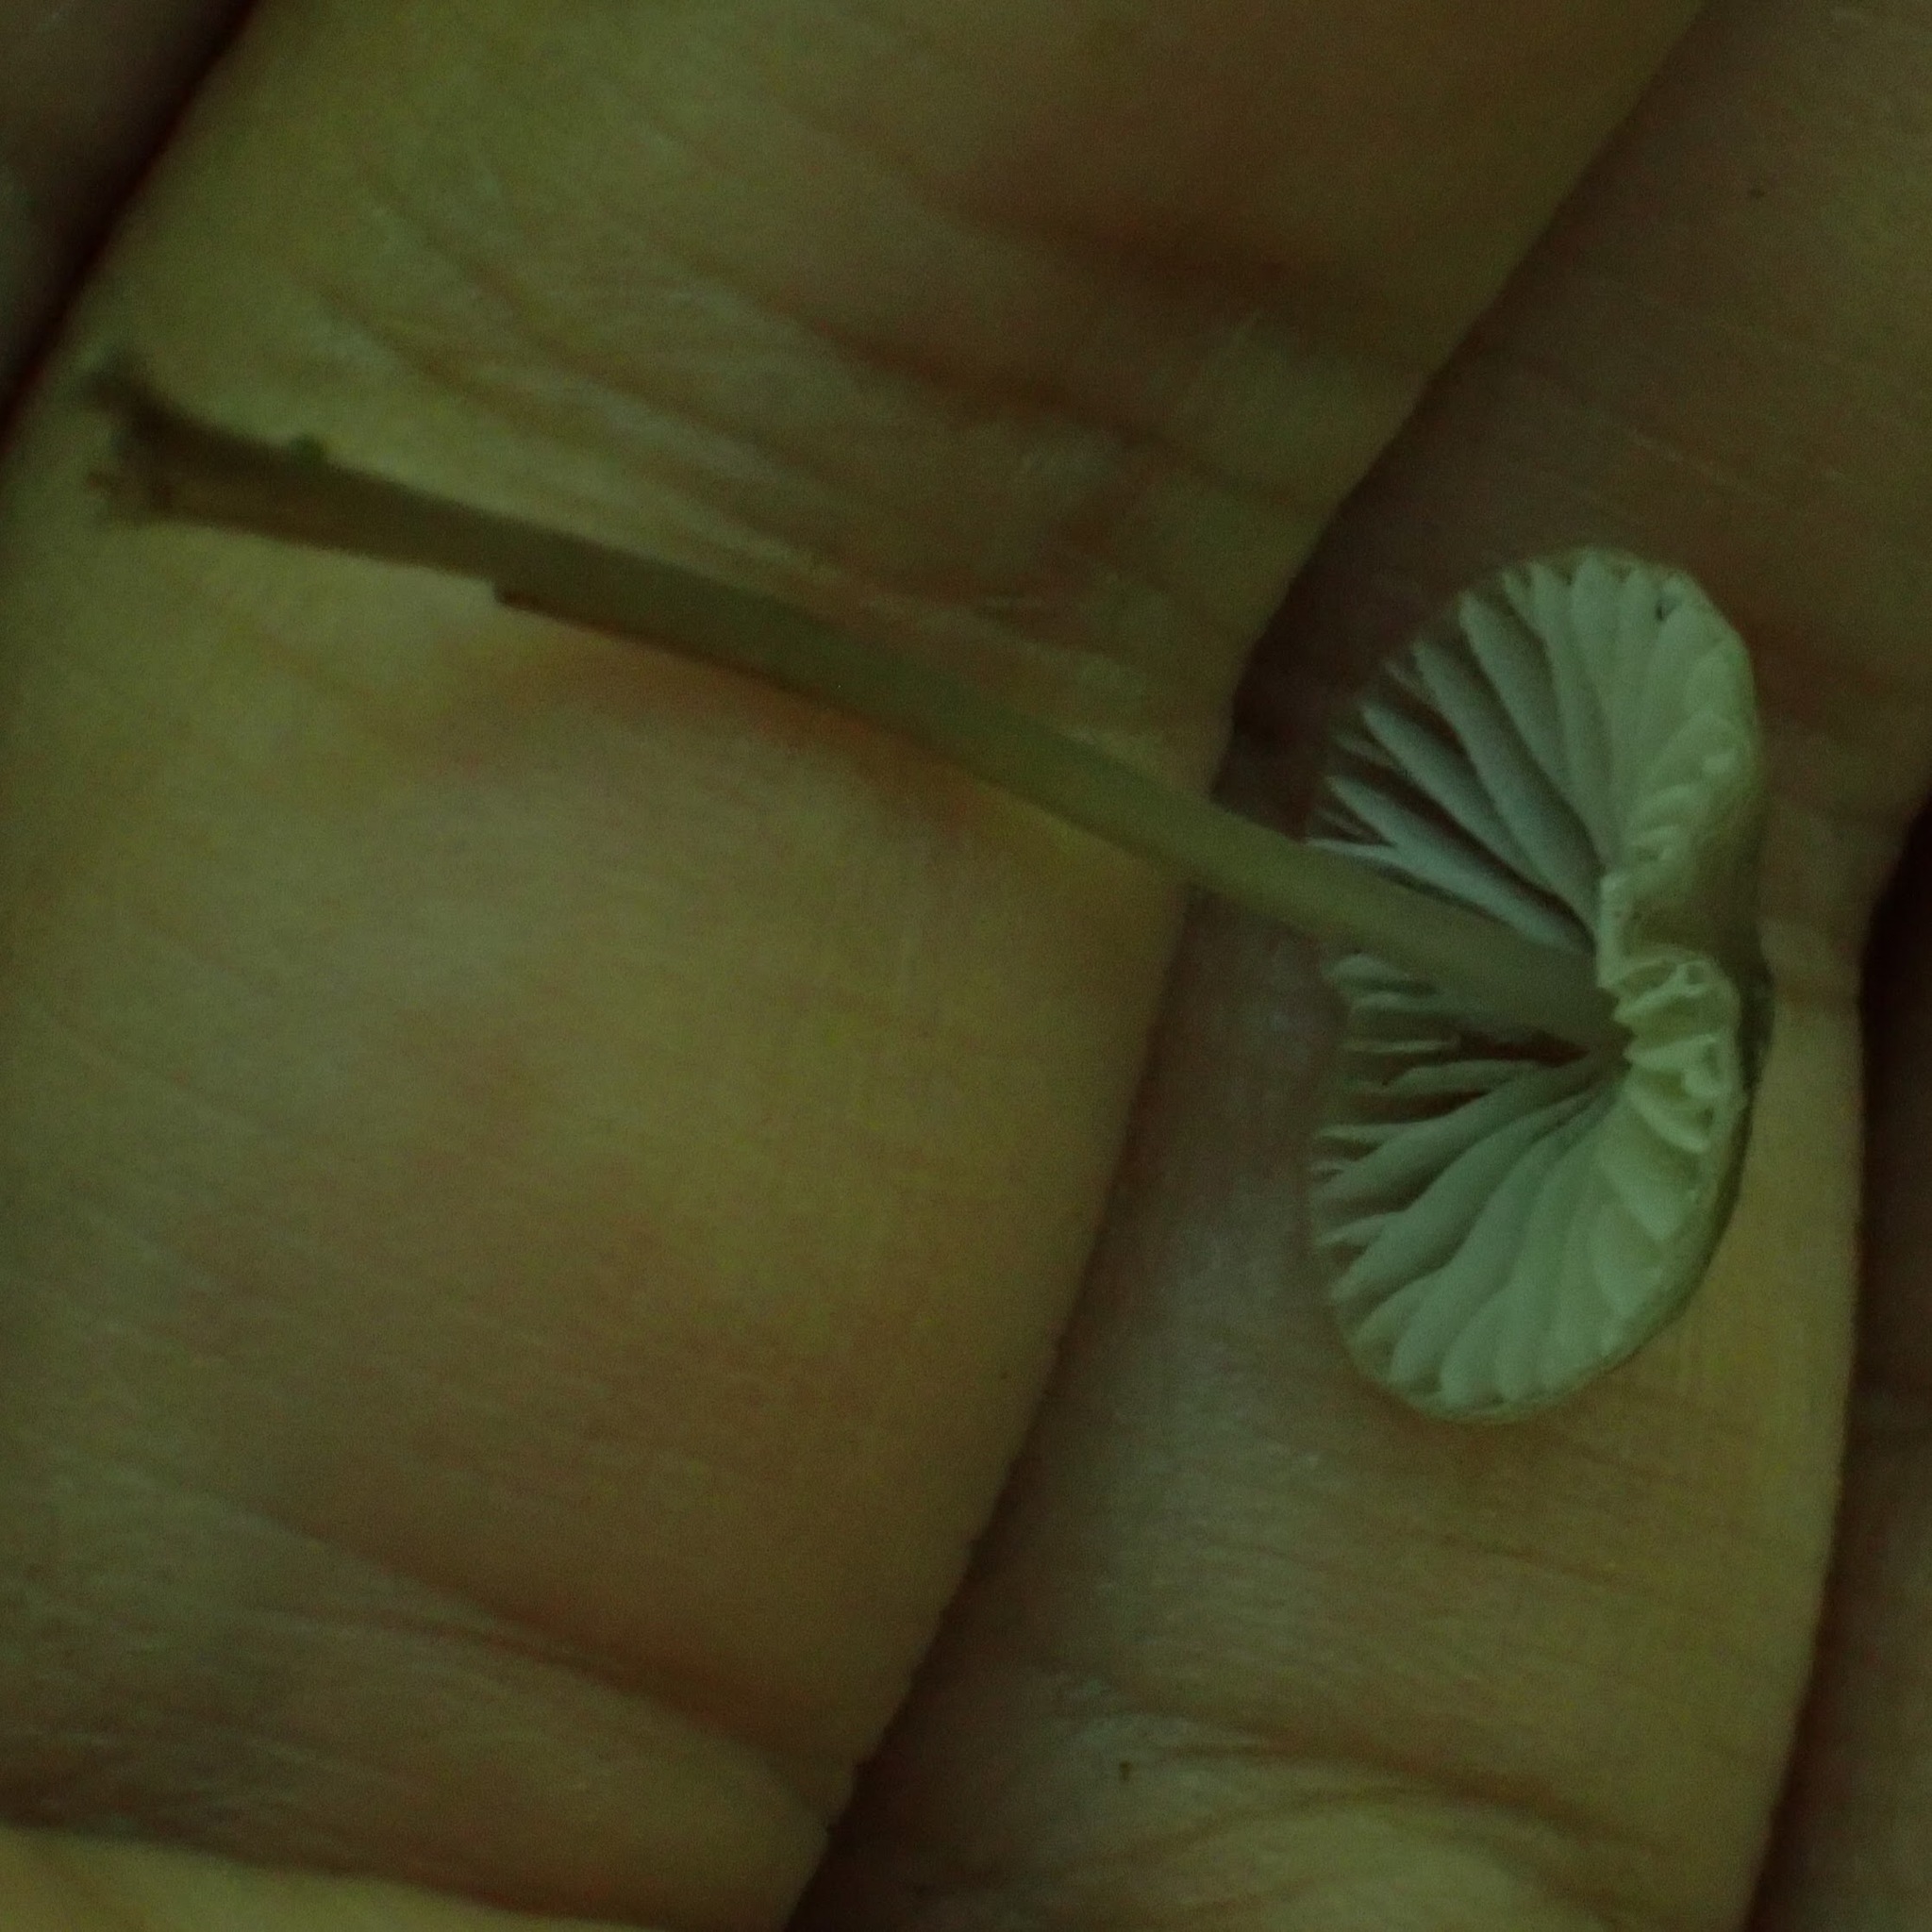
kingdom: Fungi
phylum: Basidiomycota
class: Agaricomycetes
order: Agaricales
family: Mycenaceae
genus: Mycena
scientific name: Mycena leptocephala
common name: Nitrous bonnet
